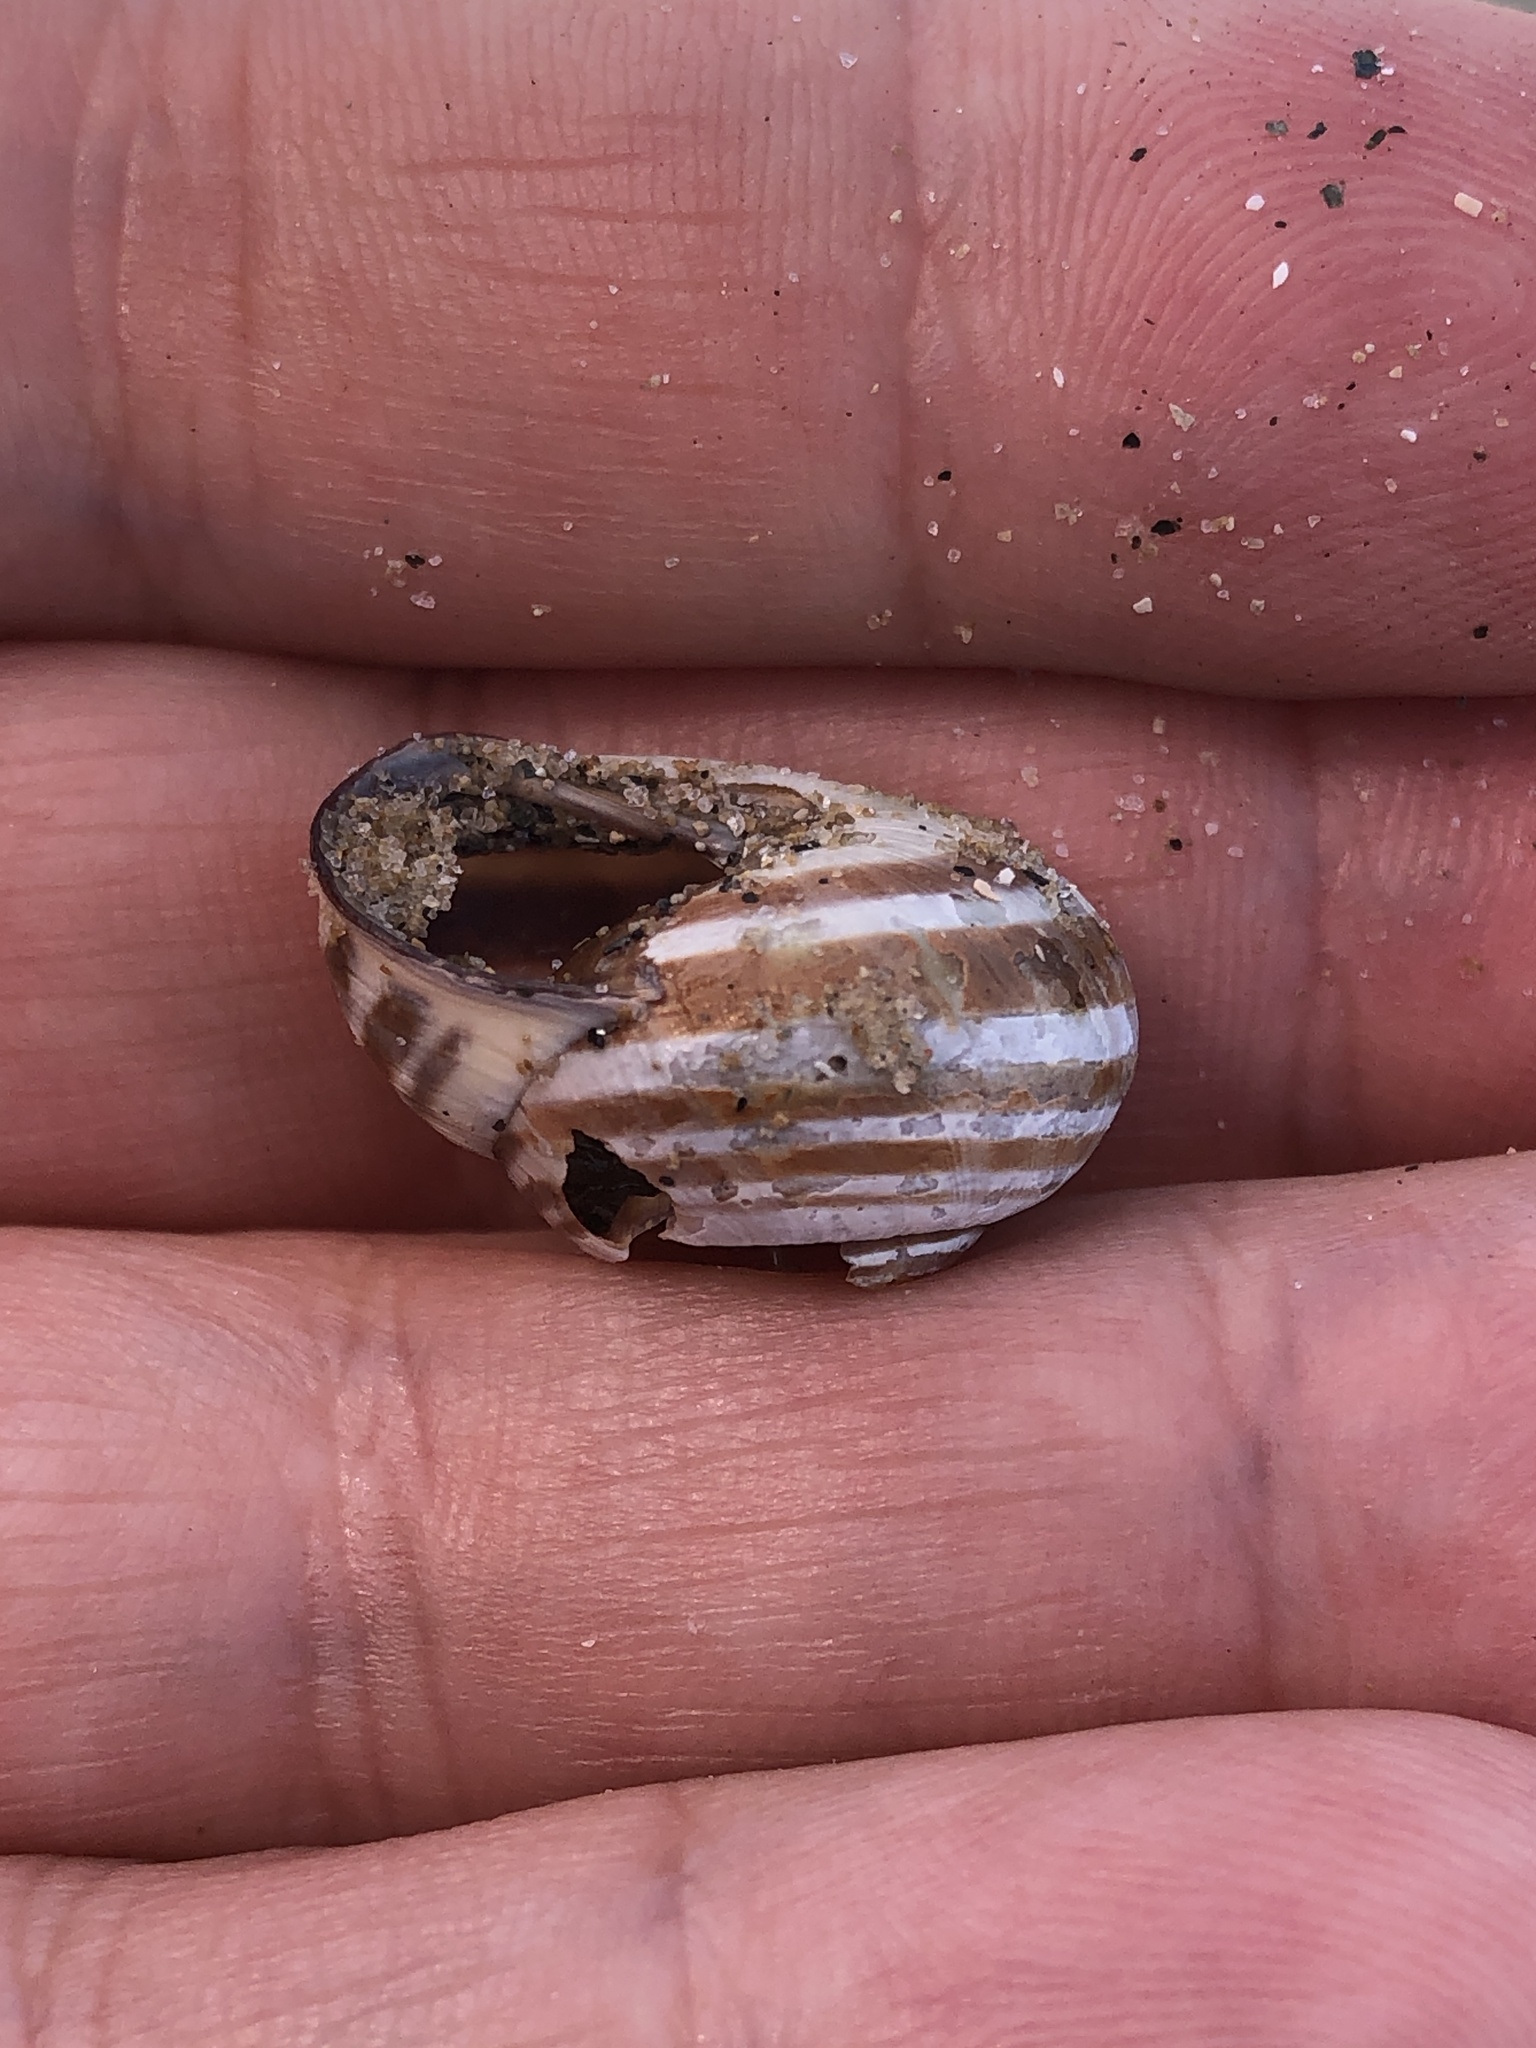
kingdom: Animalia
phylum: Mollusca
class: Gastropoda
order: Stylommatophora
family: Helicidae
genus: Cepaea
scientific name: Cepaea nemoralis
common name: Grovesnail
